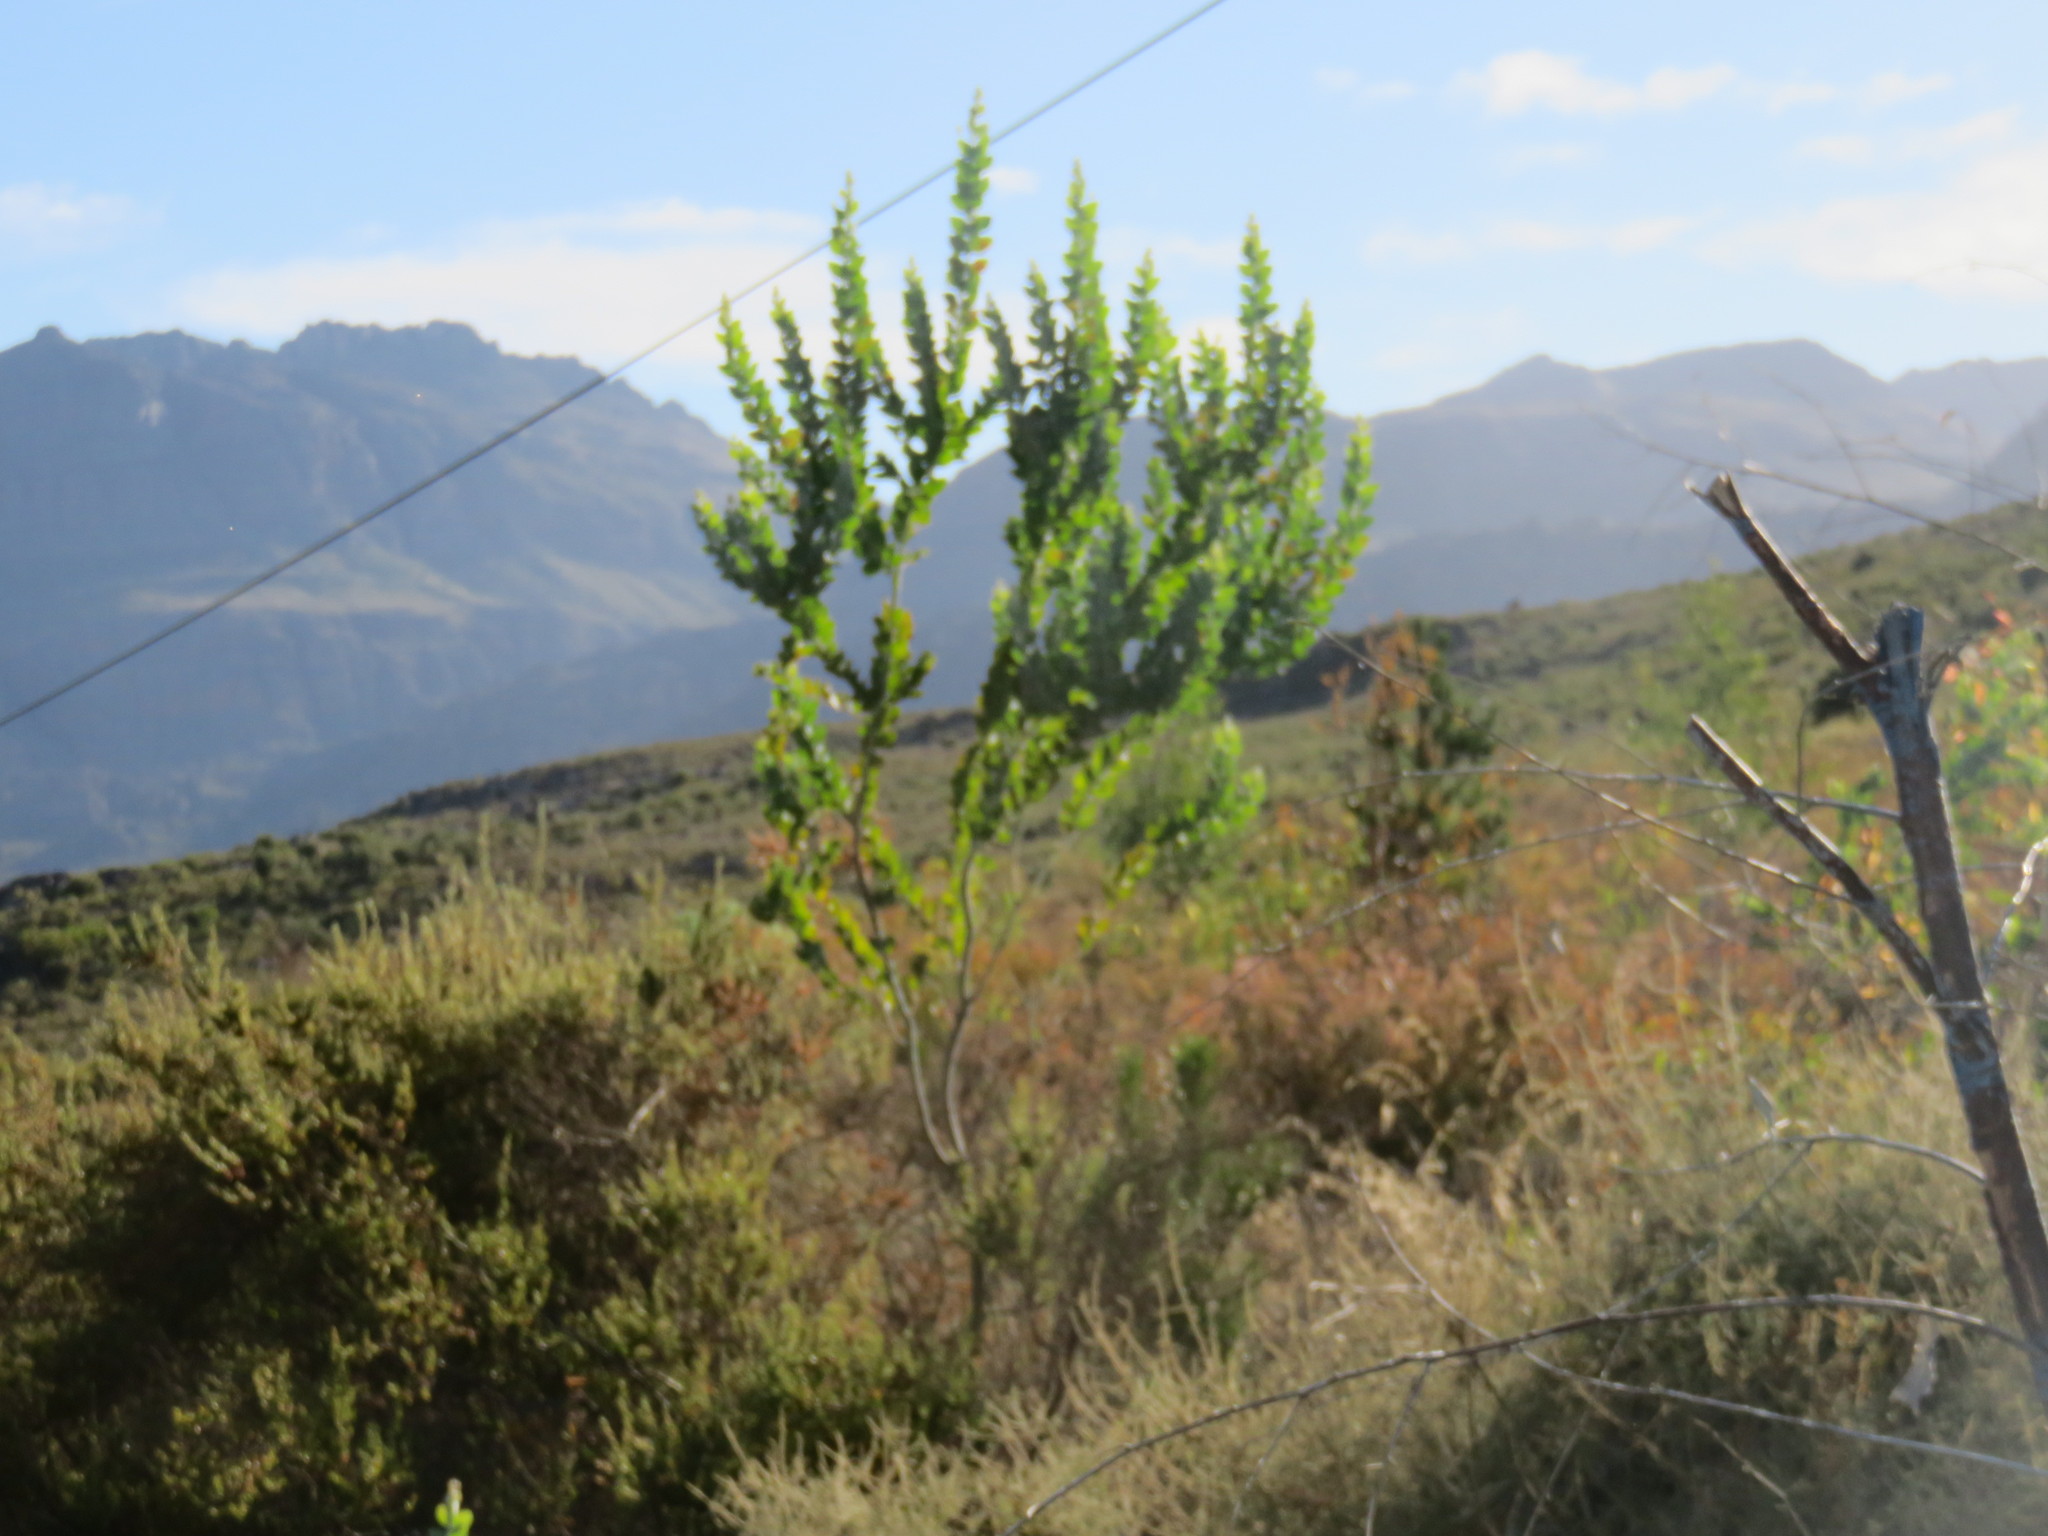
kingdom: Plantae
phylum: Tracheophyta
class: Magnoliopsida
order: Fabales
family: Fabaceae
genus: Acacia
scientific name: Acacia podalyriifolia
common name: Pearl wattle
